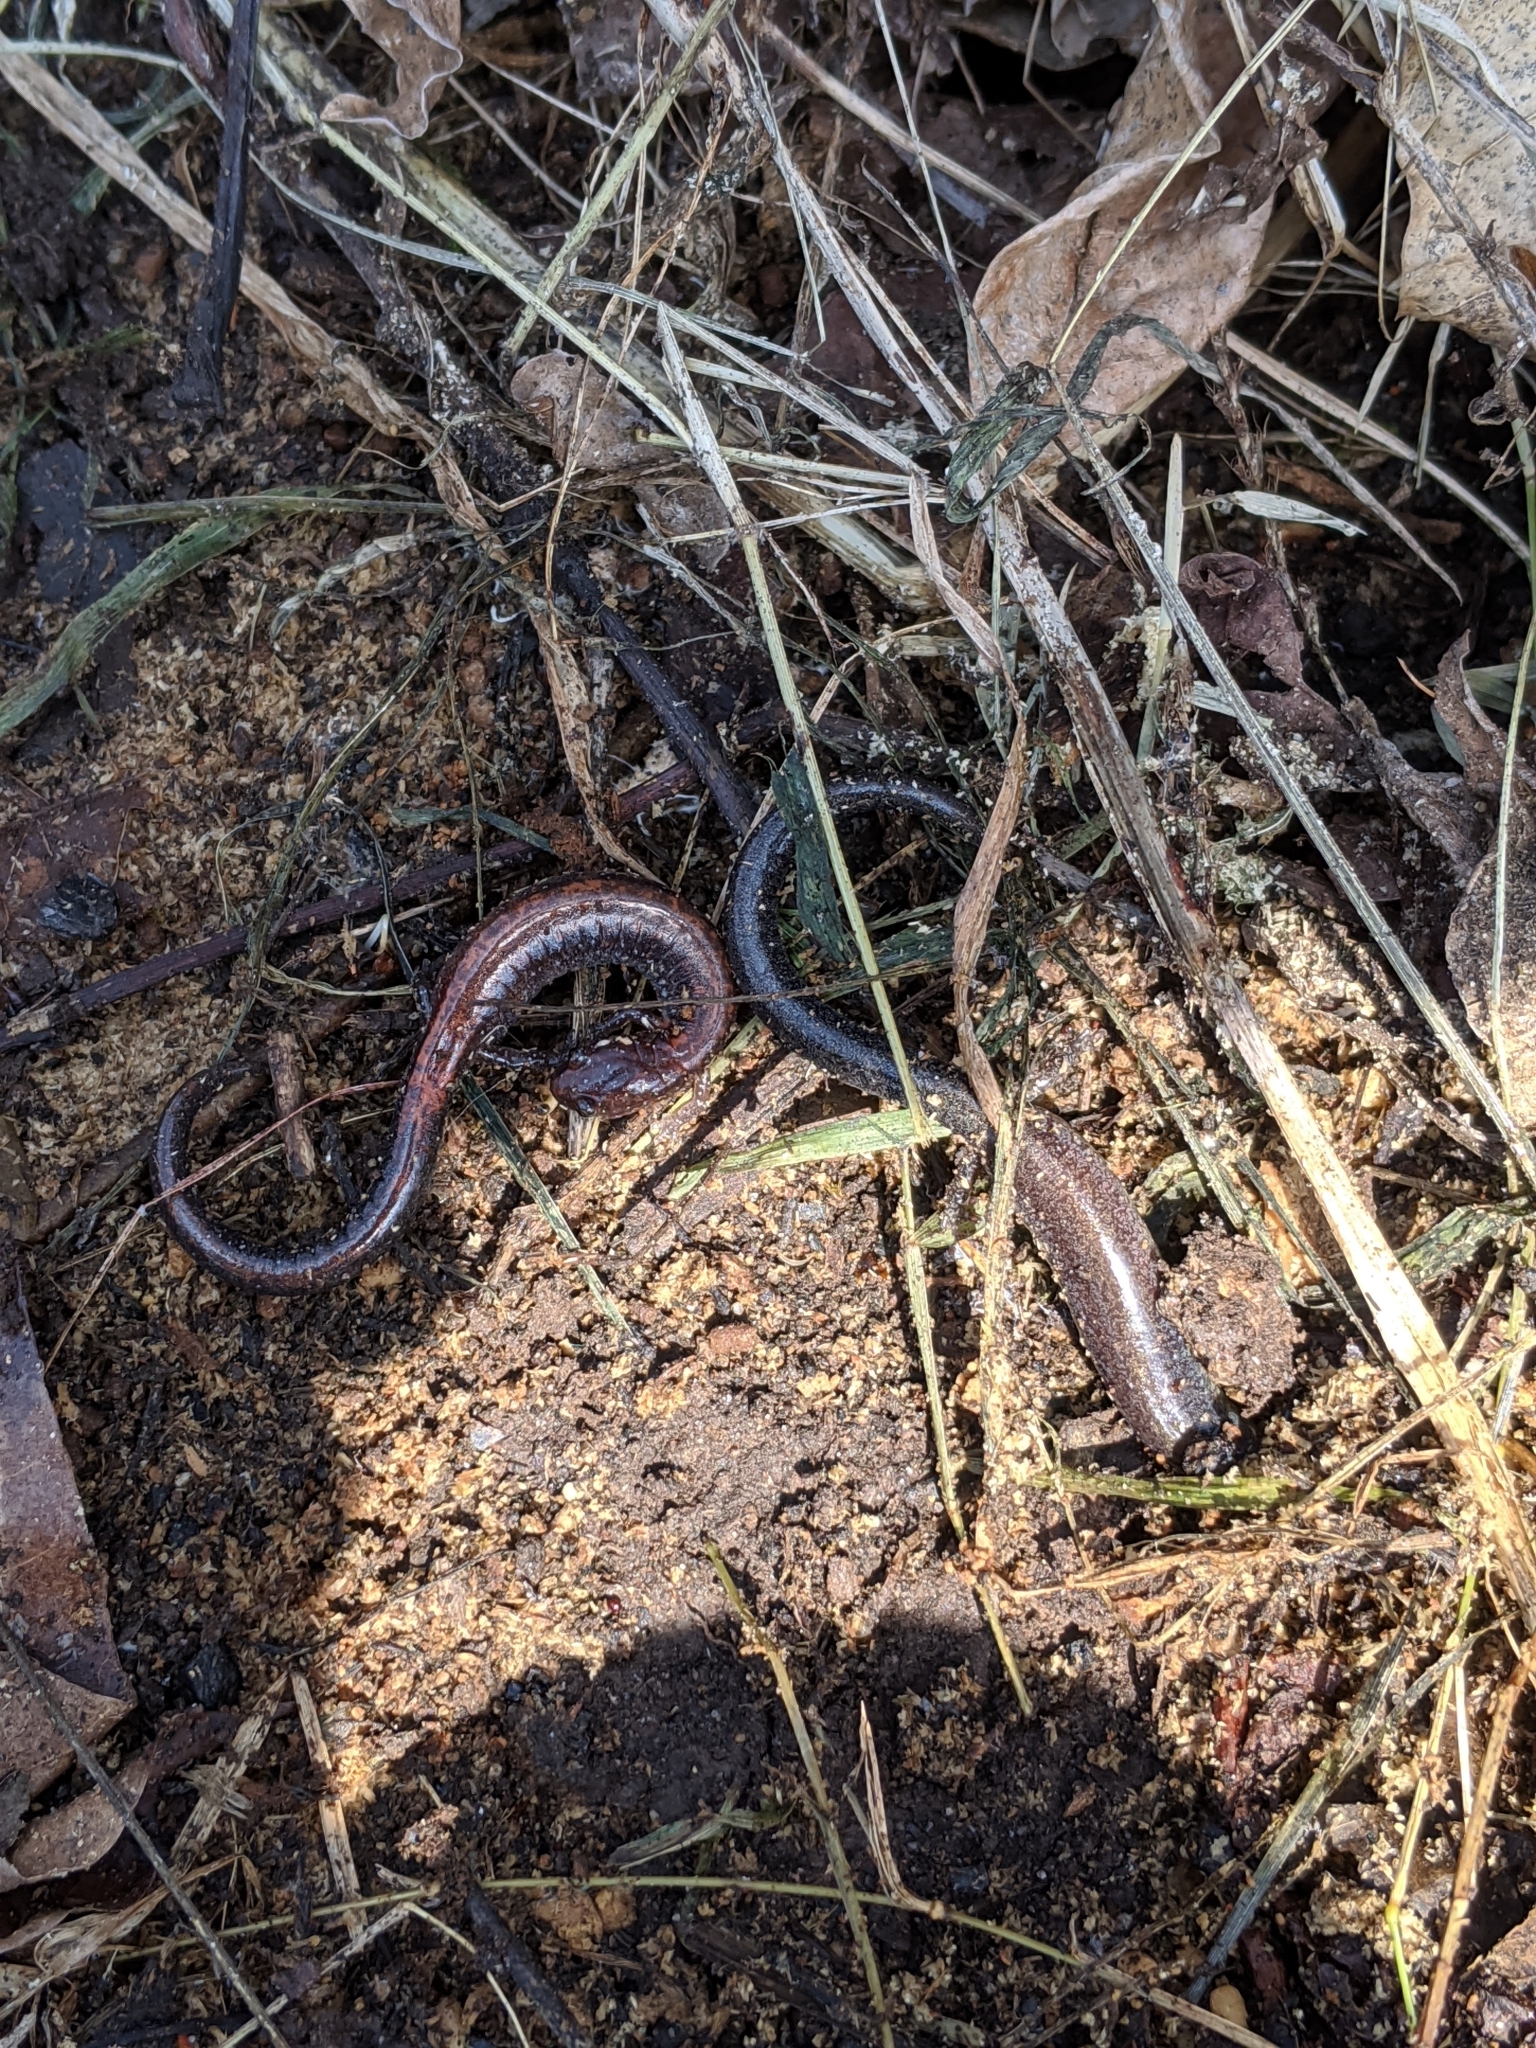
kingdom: Animalia
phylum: Chordata
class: Amphibia
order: Caudata
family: Plethodontidae
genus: Plethodon
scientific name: Plethodon cinereus
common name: Redback salamander
